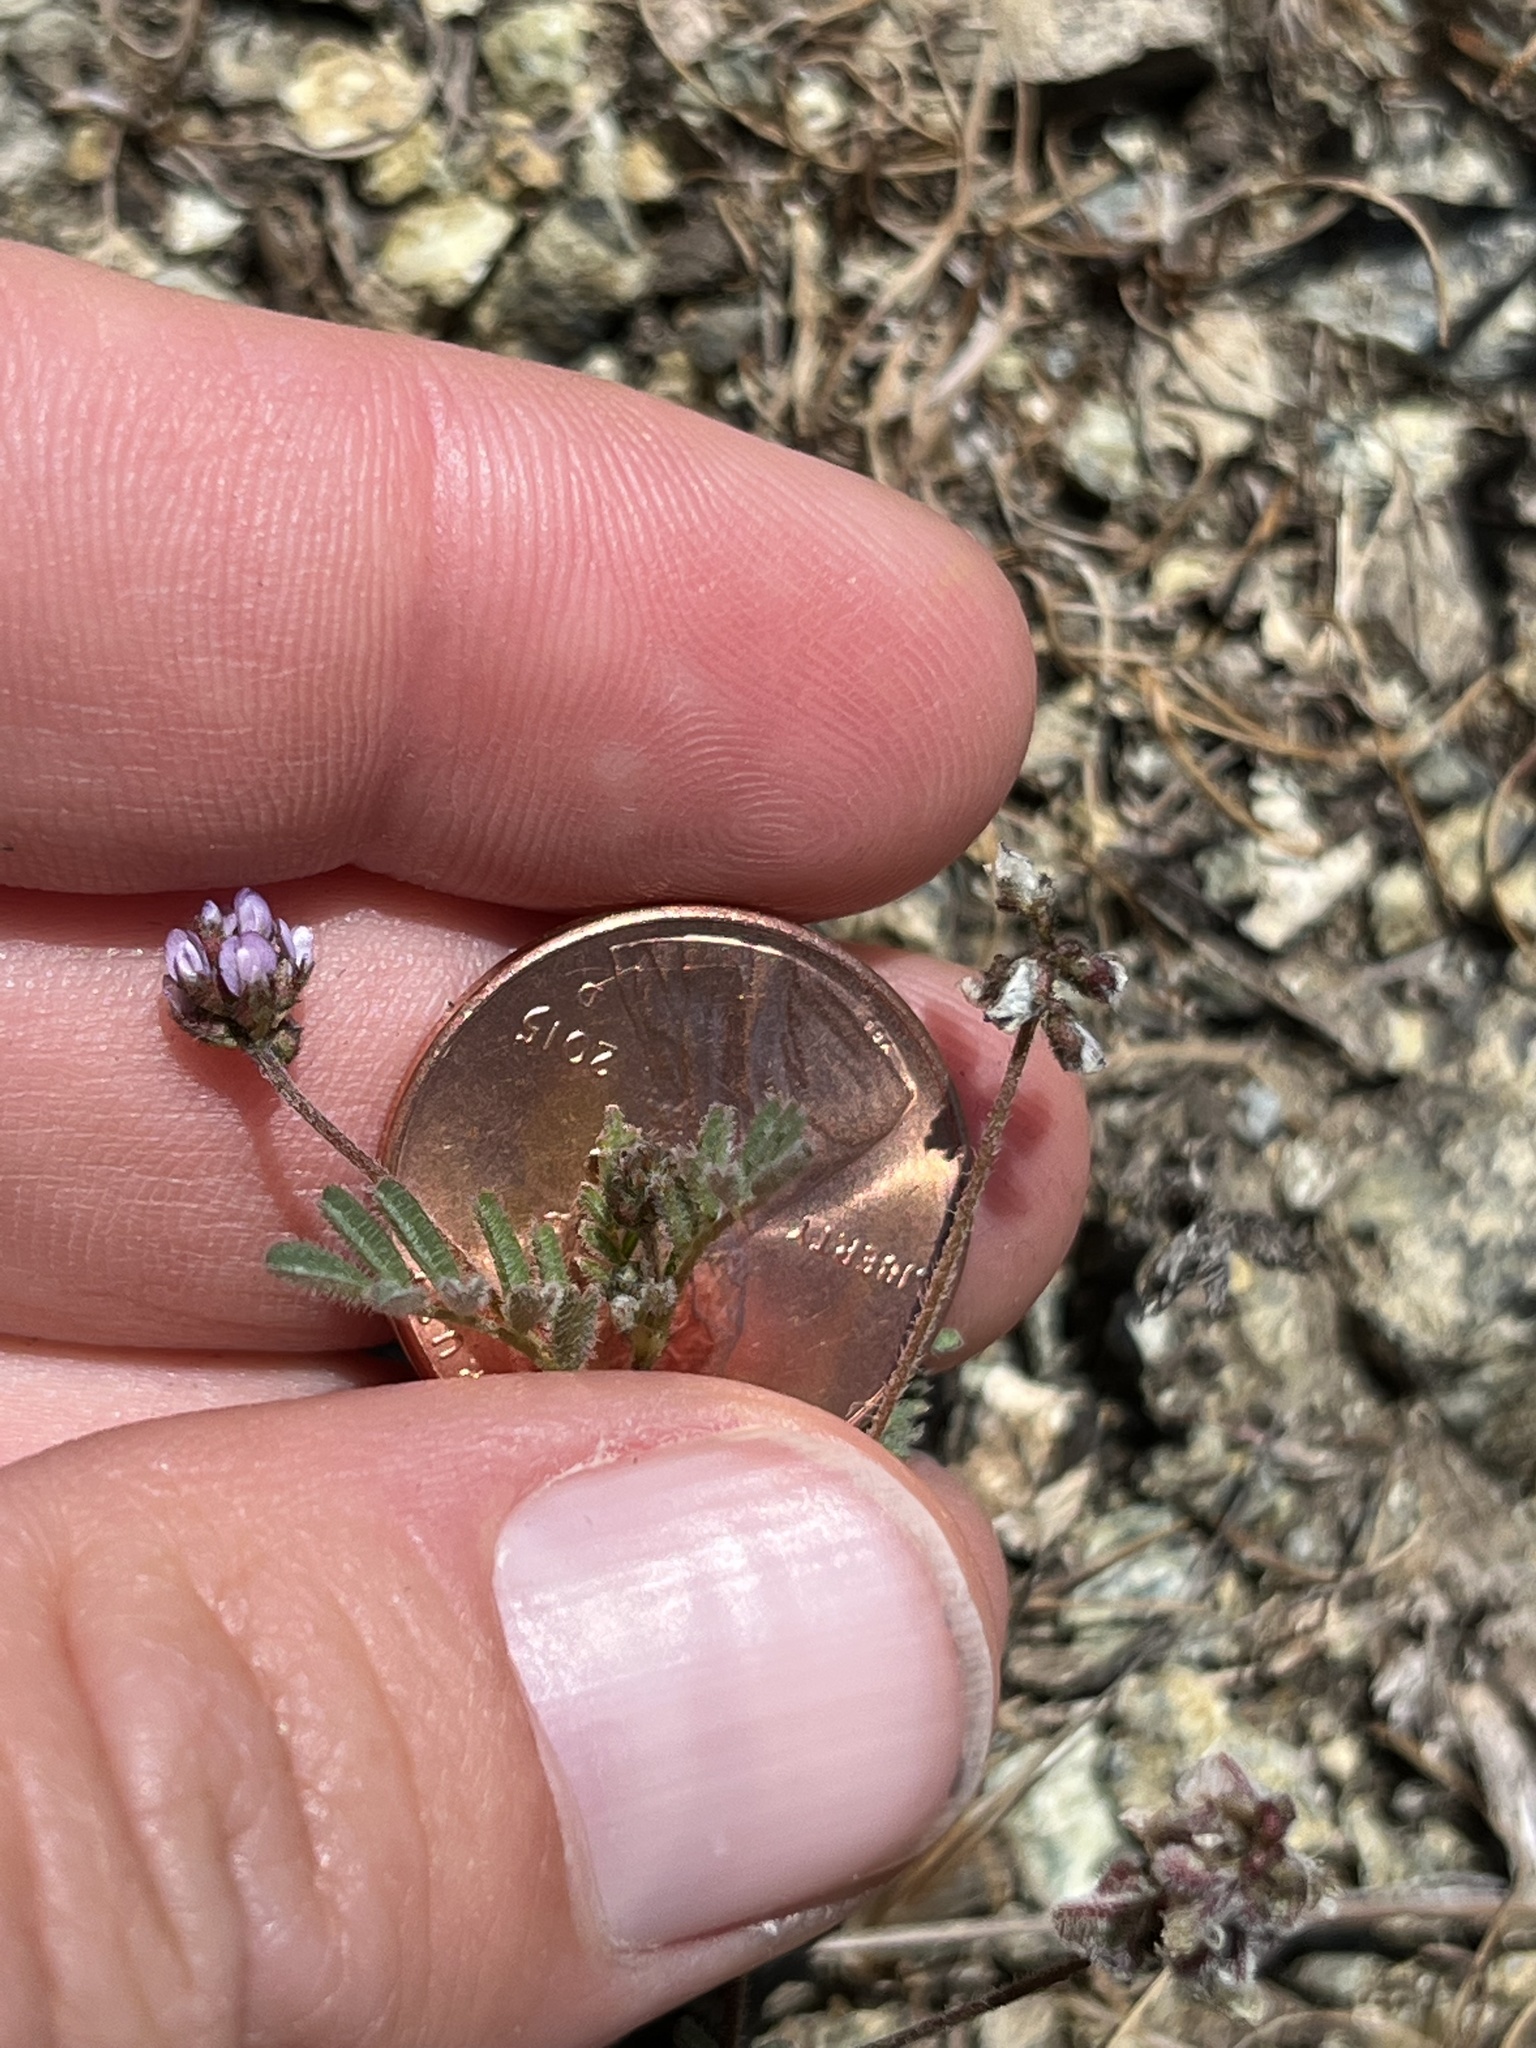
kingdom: Plantae
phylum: Tracheophyta
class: Magnoliopsida
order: Fabales
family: Fabaceae
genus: Astragalus
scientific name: Astragalus gambelianus
